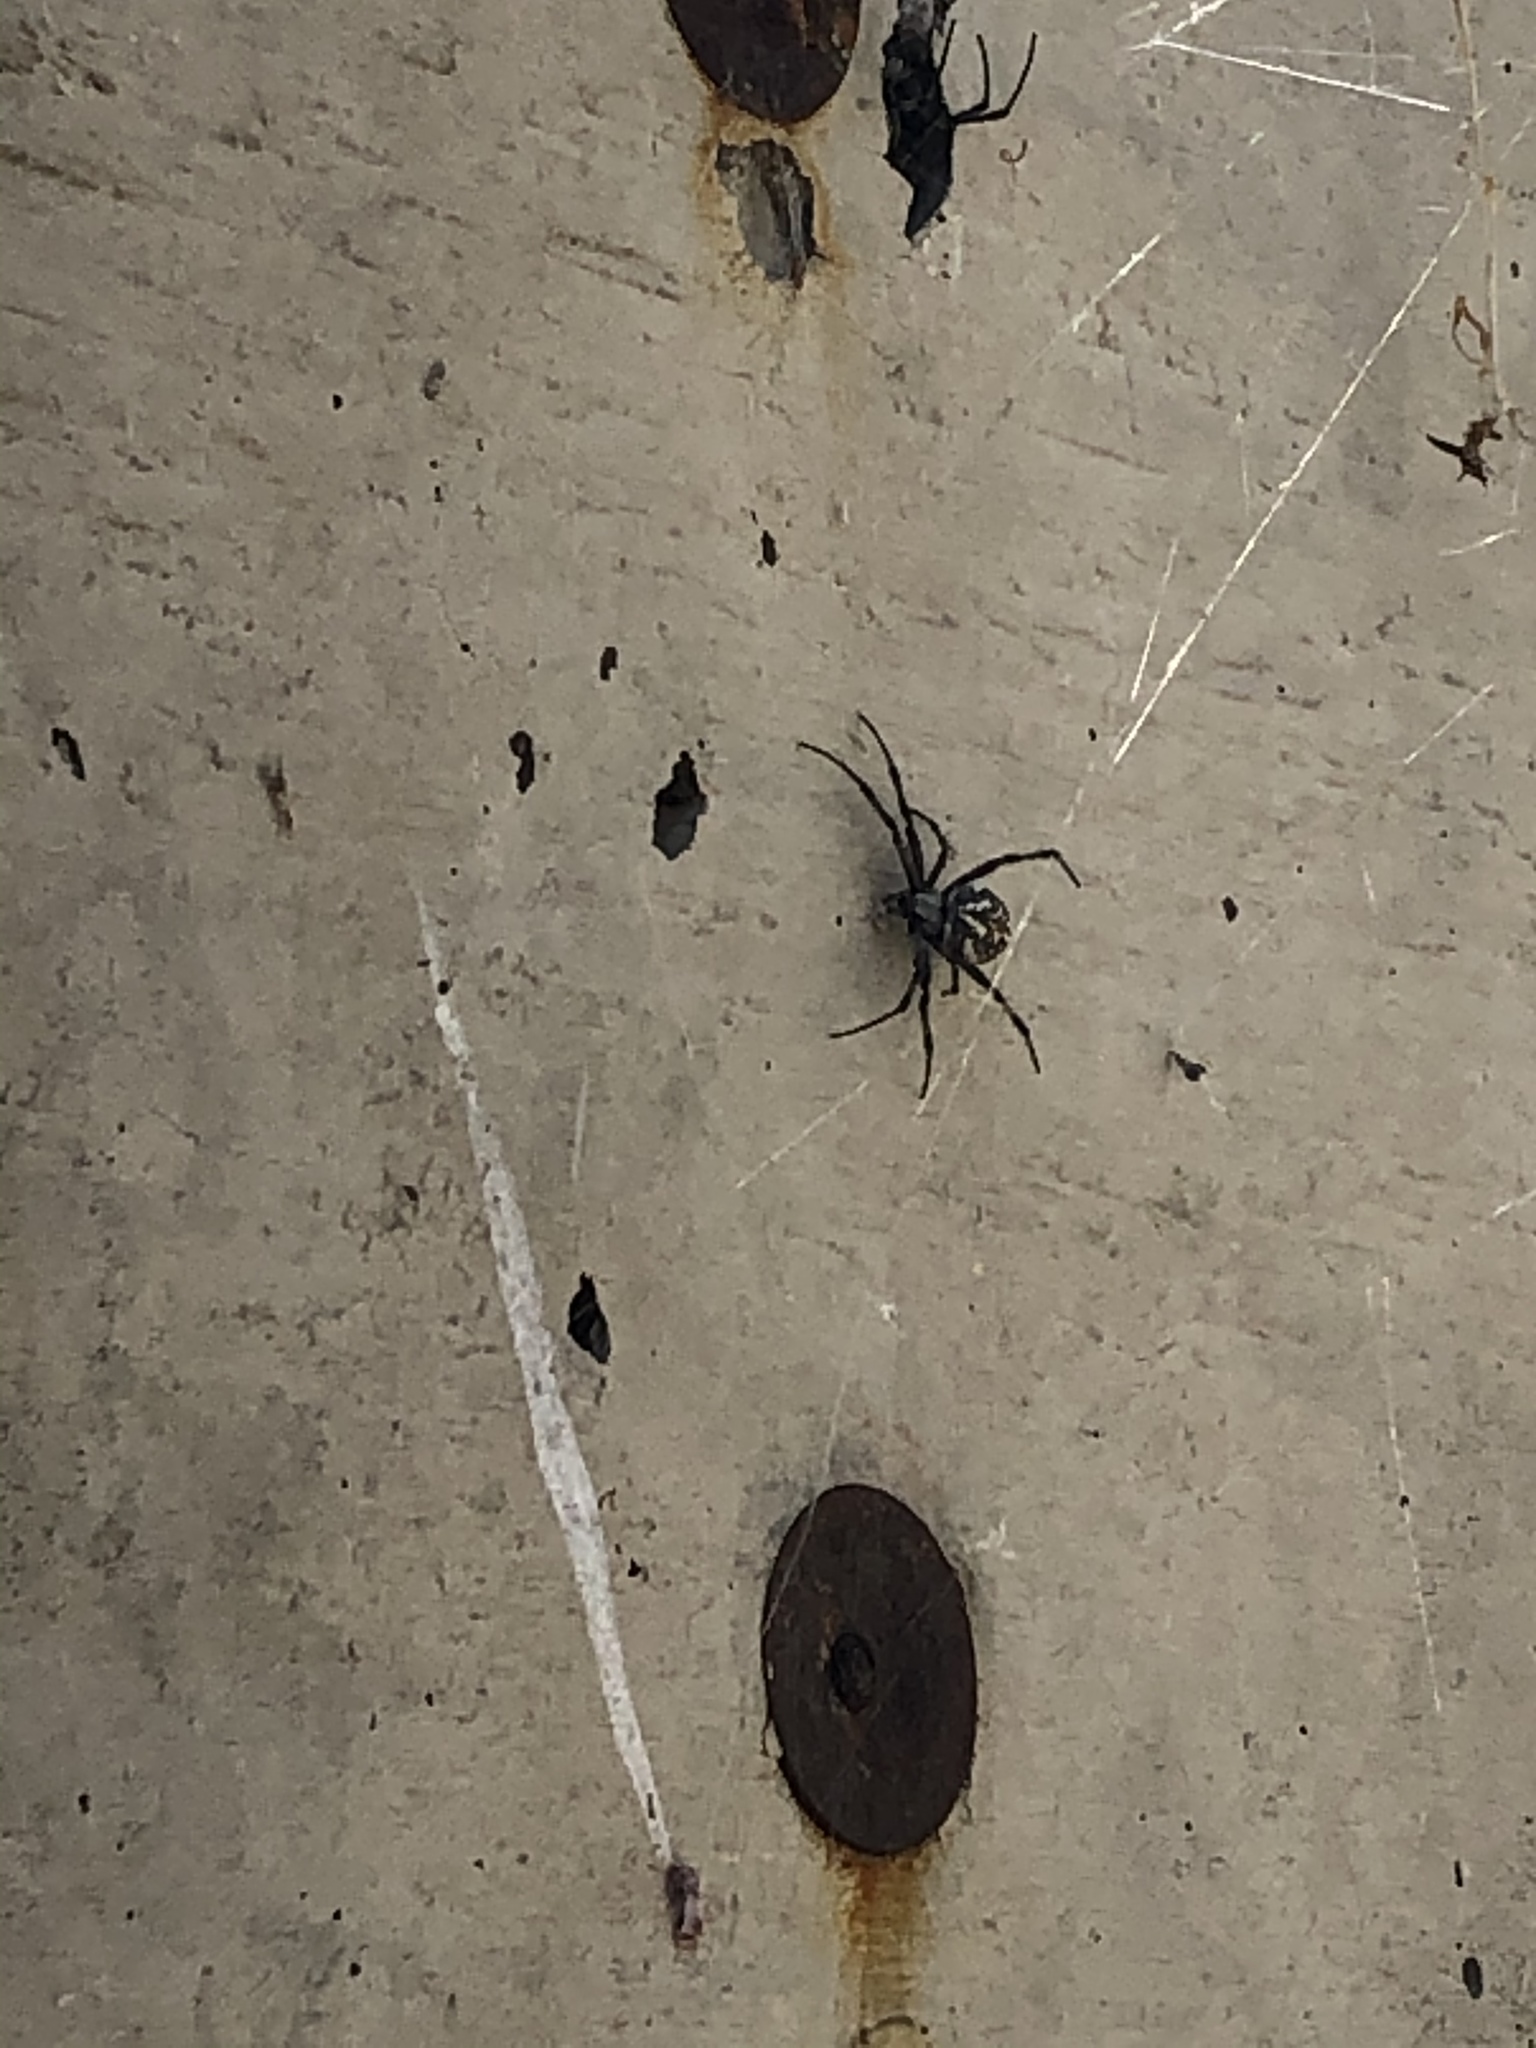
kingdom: Animalia
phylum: Arthropoda
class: Arachnida
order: Araneae
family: Araneidae
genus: Neoscona
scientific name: Neoscona oaxacensis
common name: Orb weavers
